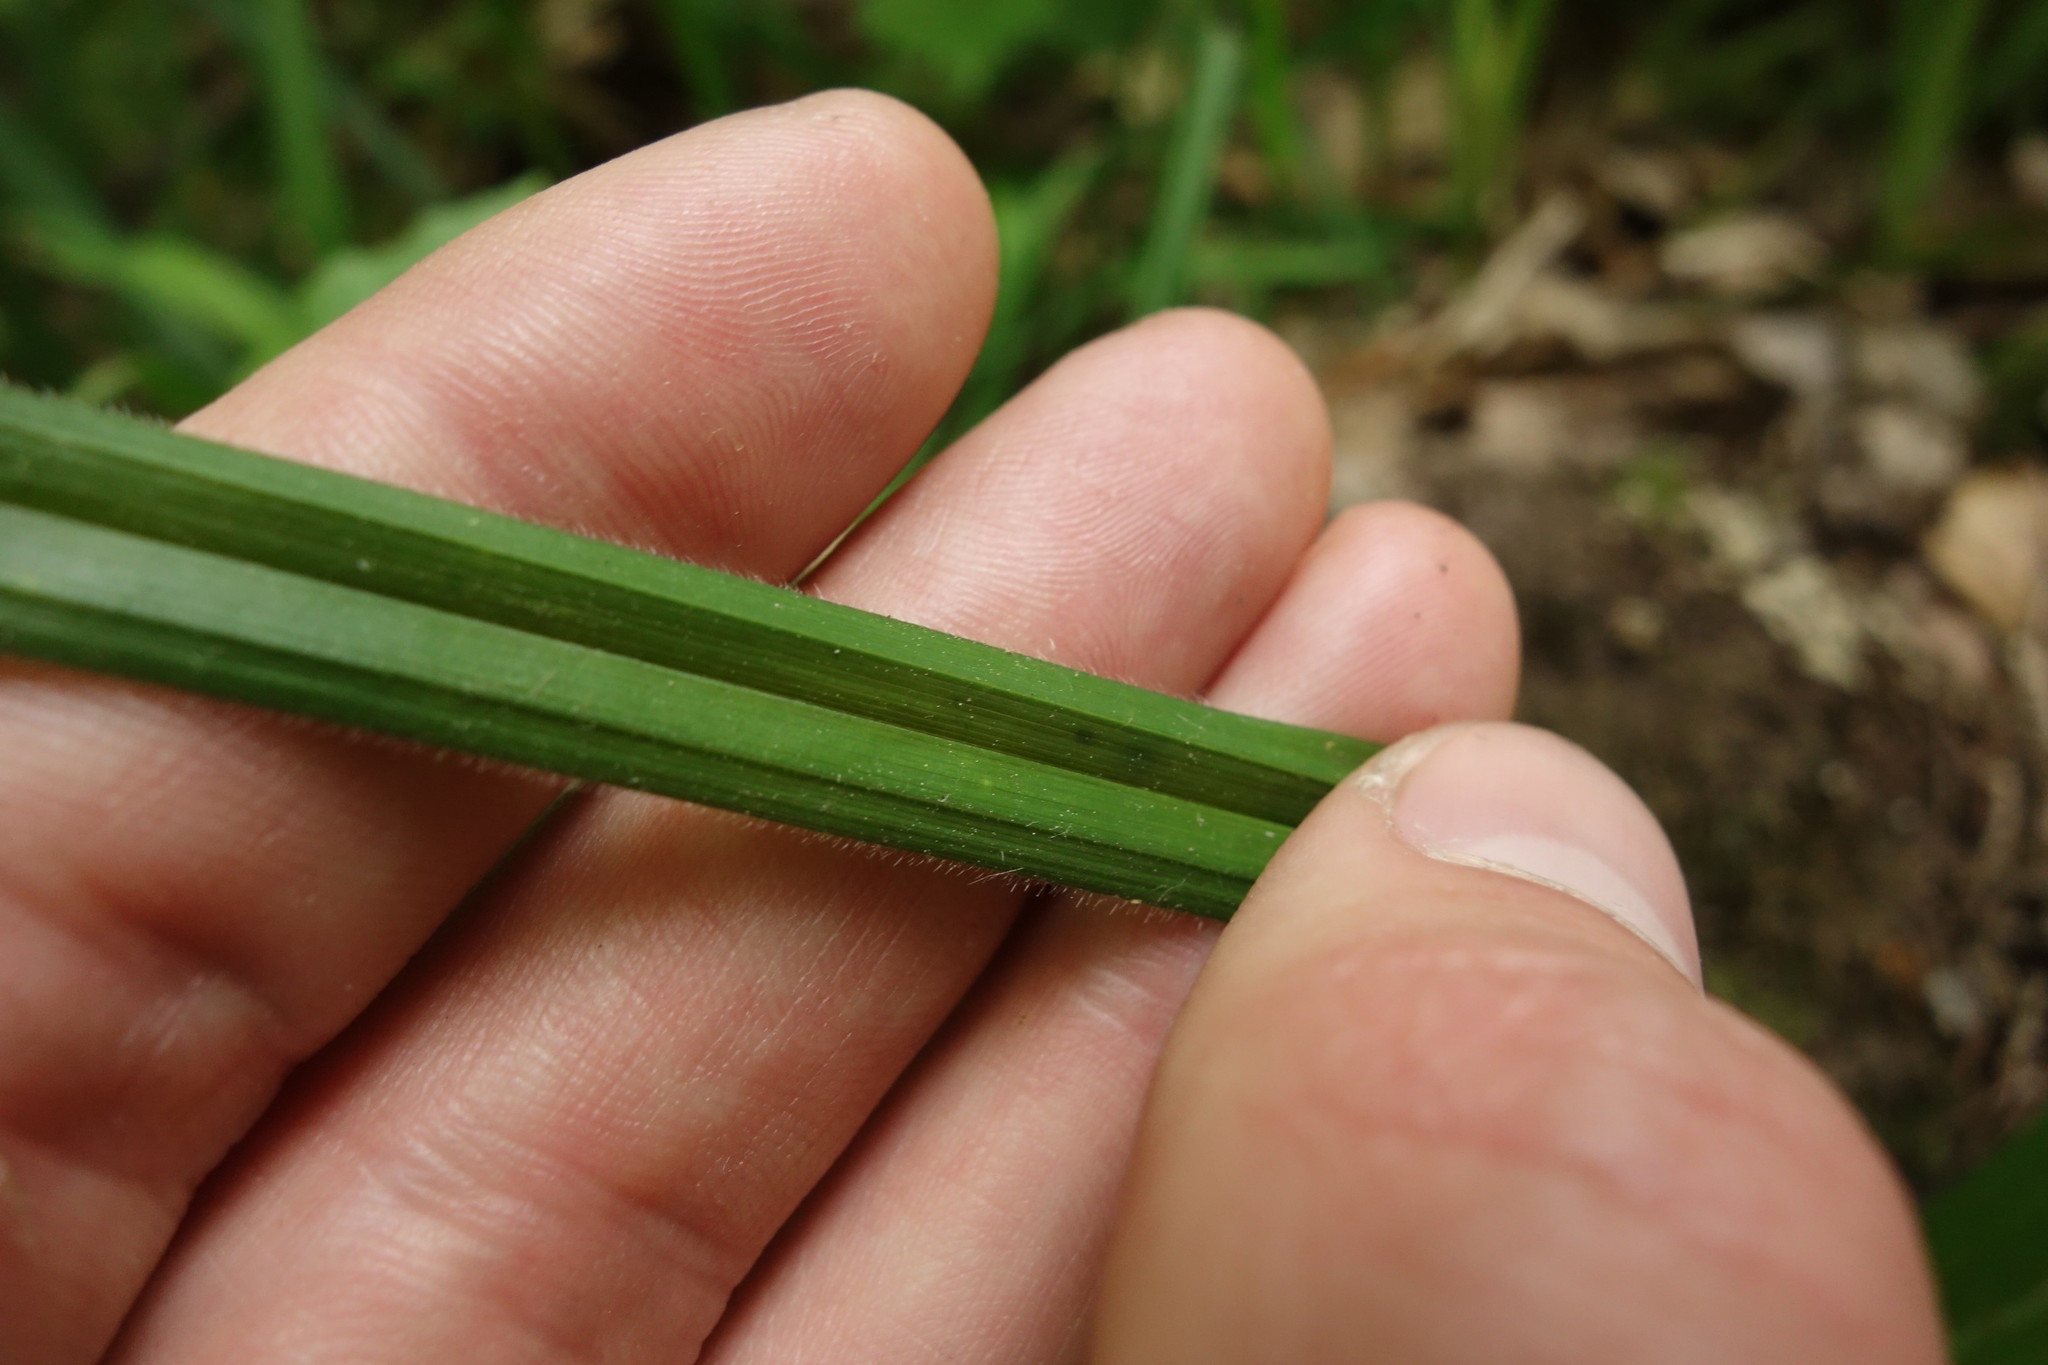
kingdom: Plantae
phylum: Tracheophyta
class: Liliopsida
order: Poales
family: Cyperaceae
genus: Carex
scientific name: Carex pilosa
